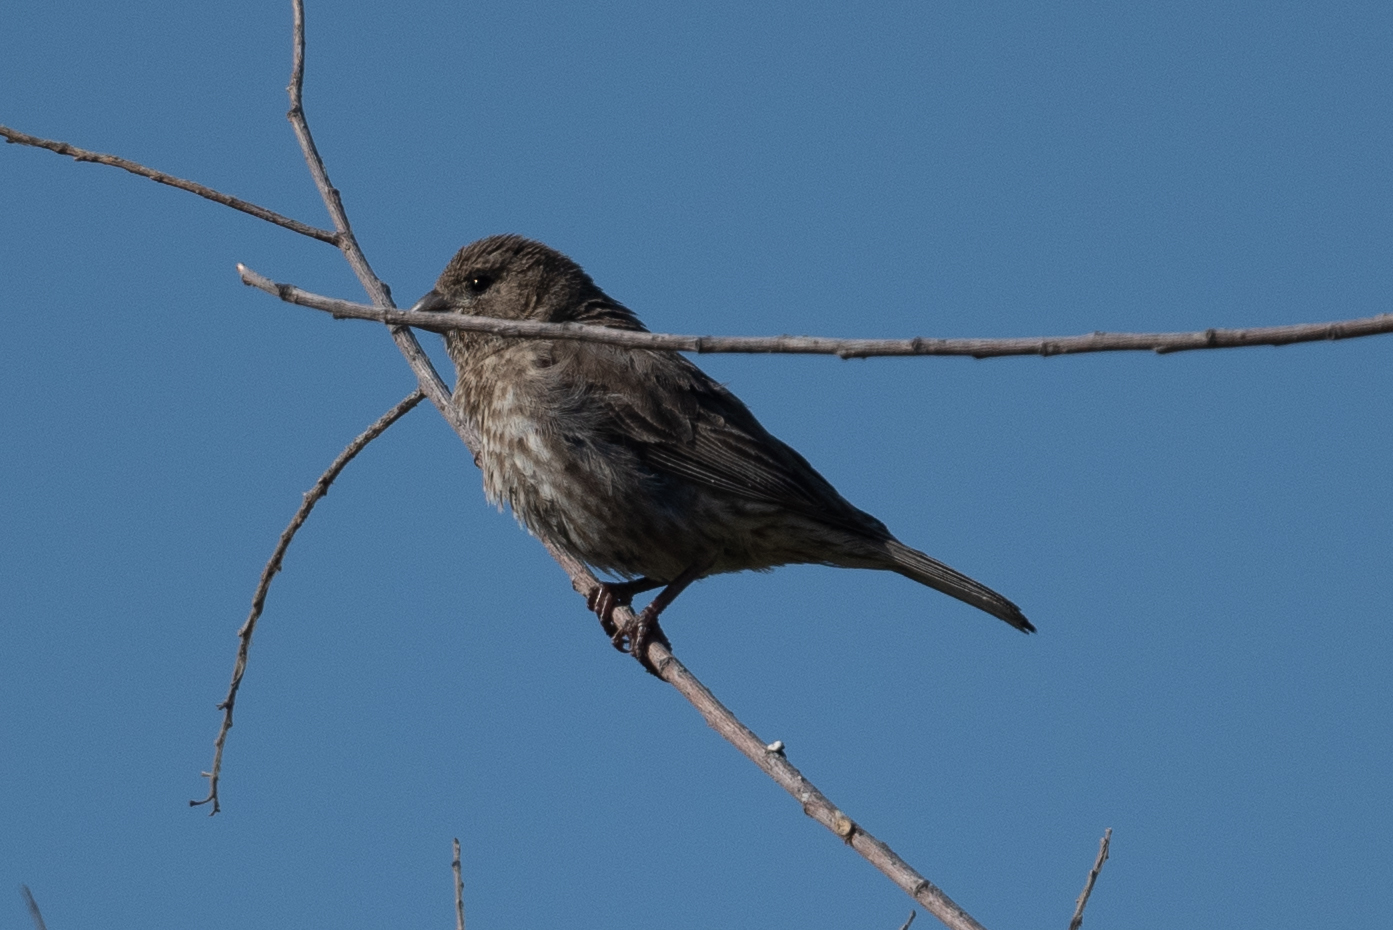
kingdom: Animalia
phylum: Chordata
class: Aves
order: Passeriformes
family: Fringillidae
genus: Haemorhous
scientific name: Haemorhous mexicanus
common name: House finch
